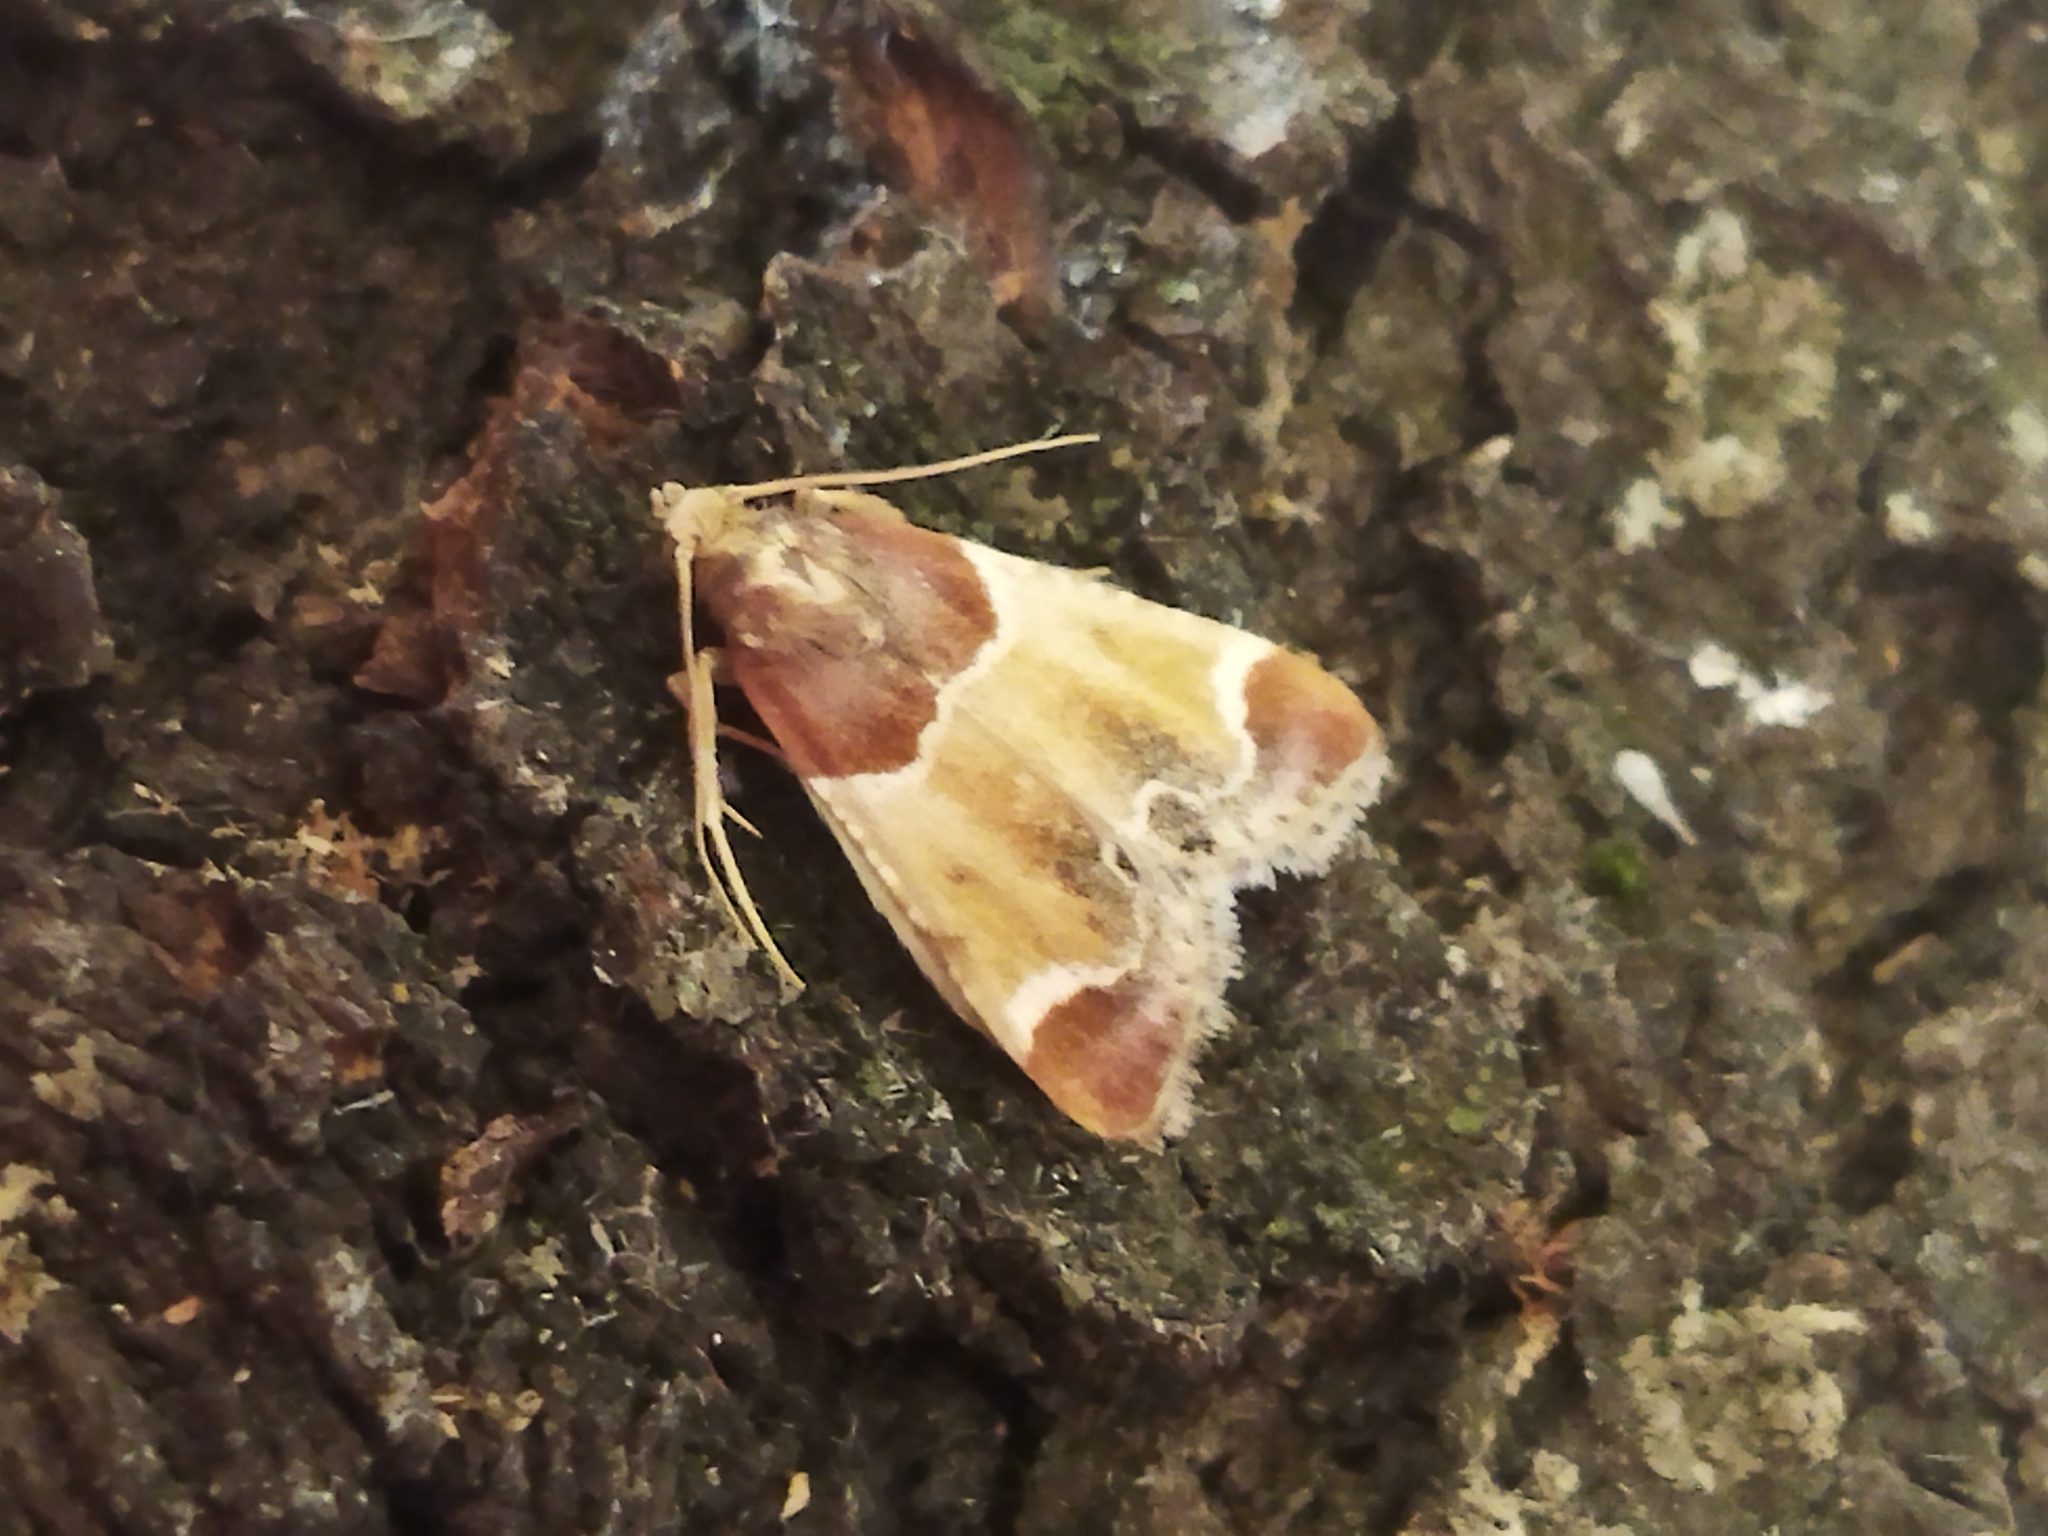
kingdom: Animalia
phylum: Arthropoda
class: Insecta
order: Lepidoptera
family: Pyralidae
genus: Pyralis
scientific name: Pyralis farinalis
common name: Meal moth
